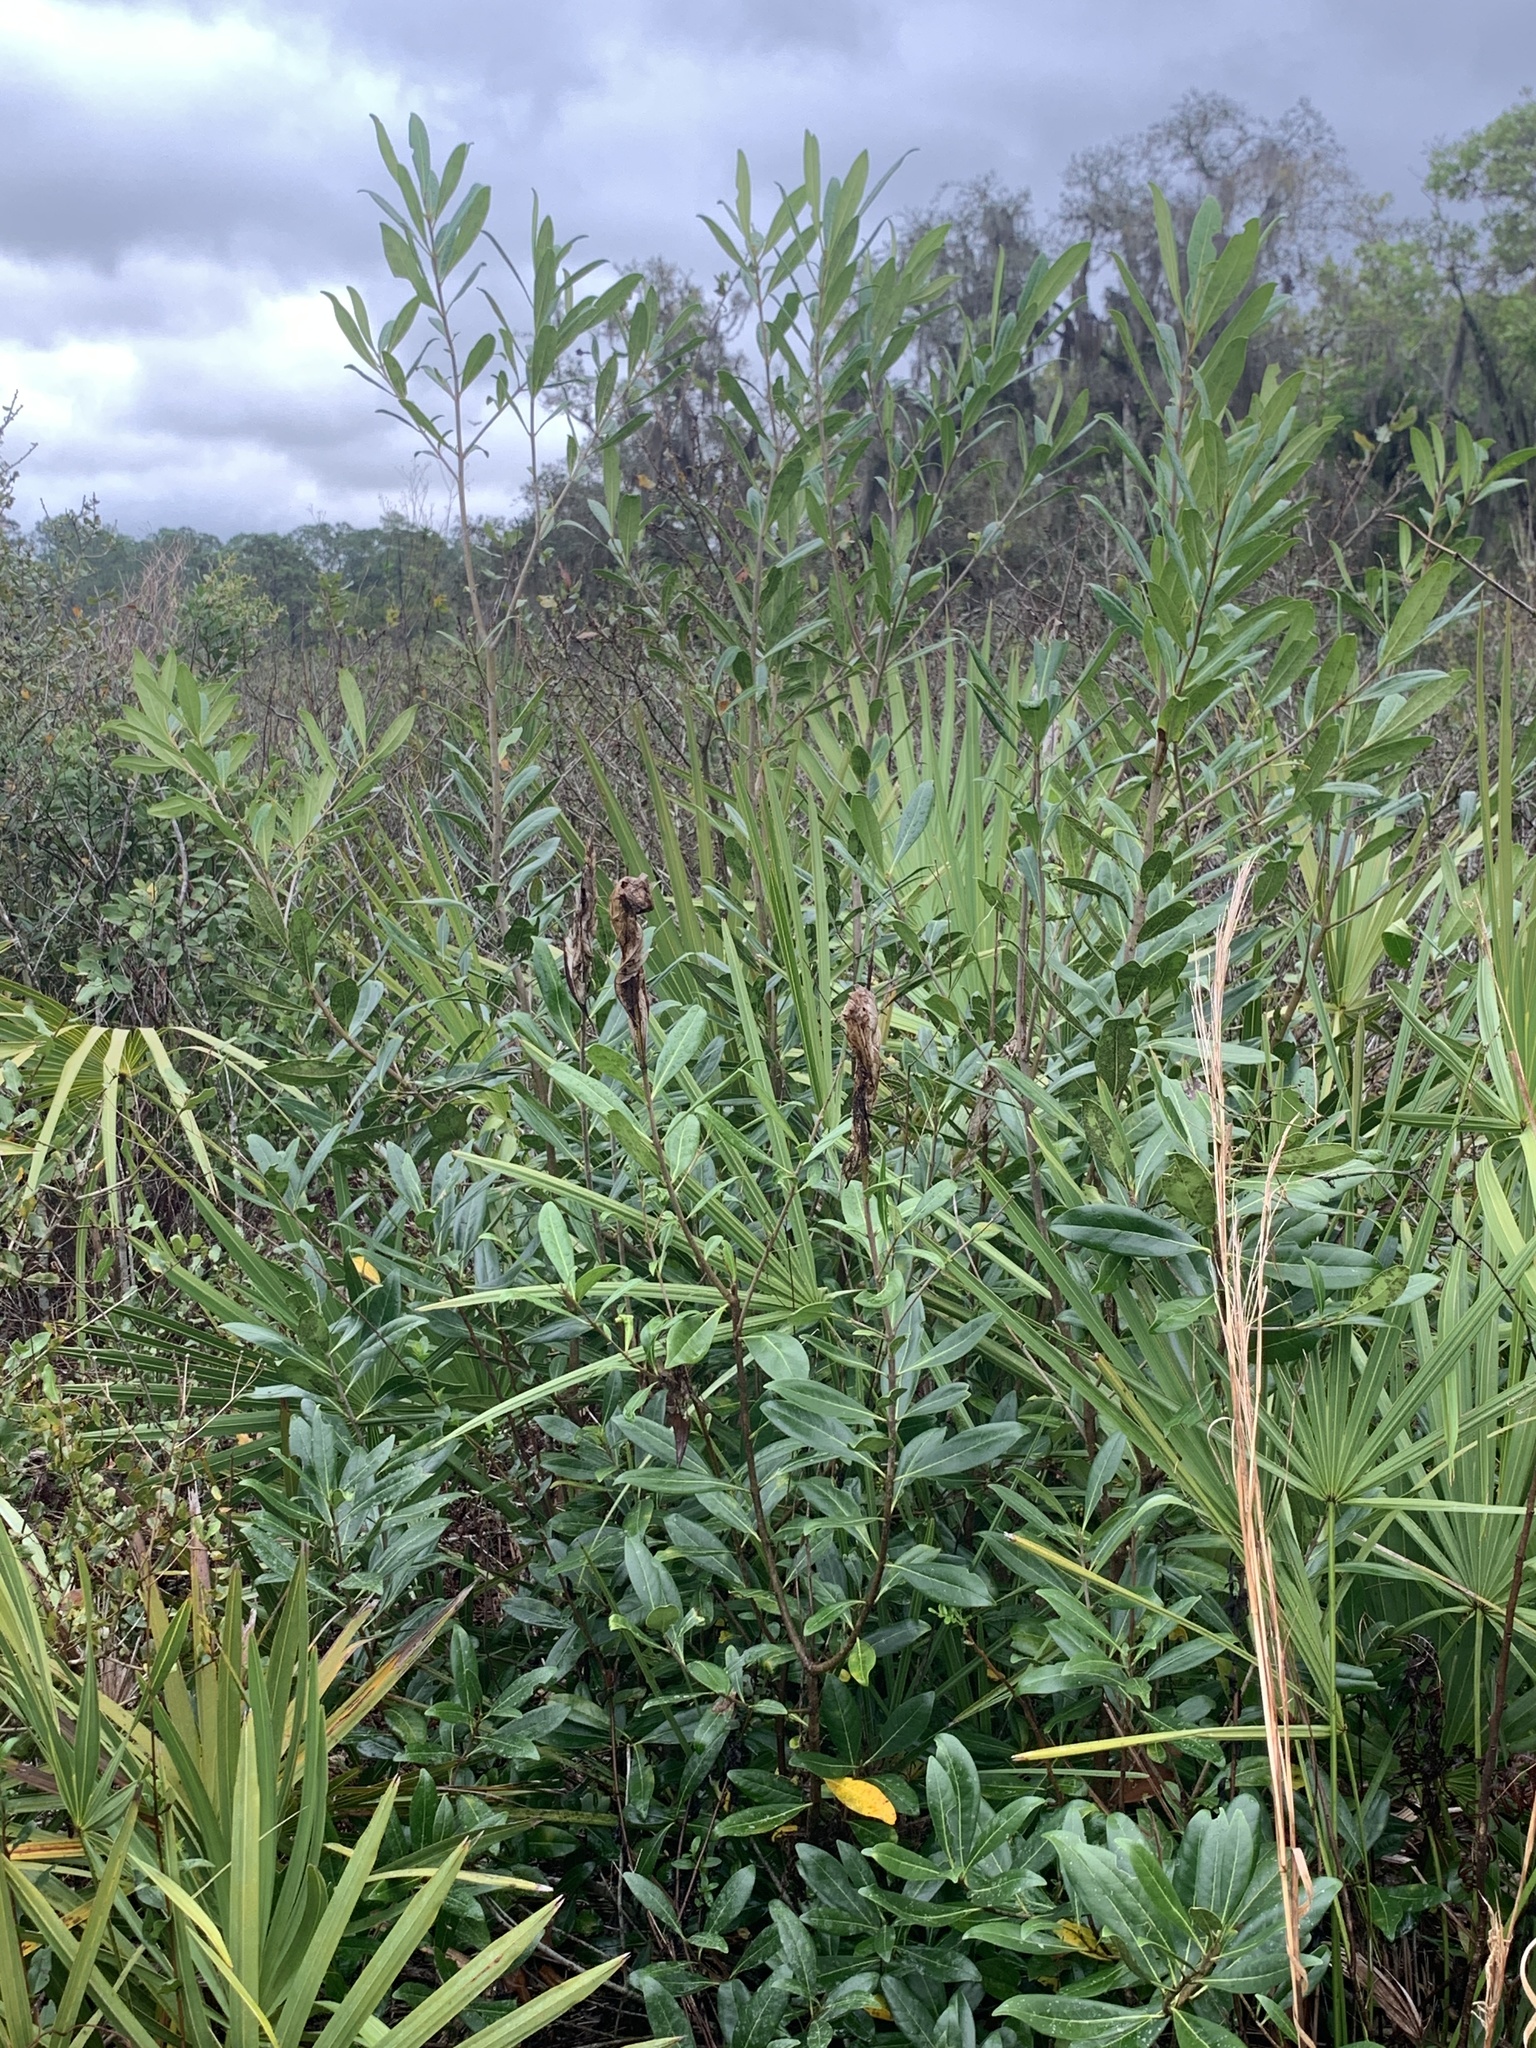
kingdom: Plantae
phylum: Tracheophyta
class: Magnoliopsida
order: Lamiales
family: Oleaceae
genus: Cartrema
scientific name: Cartrema floridana
